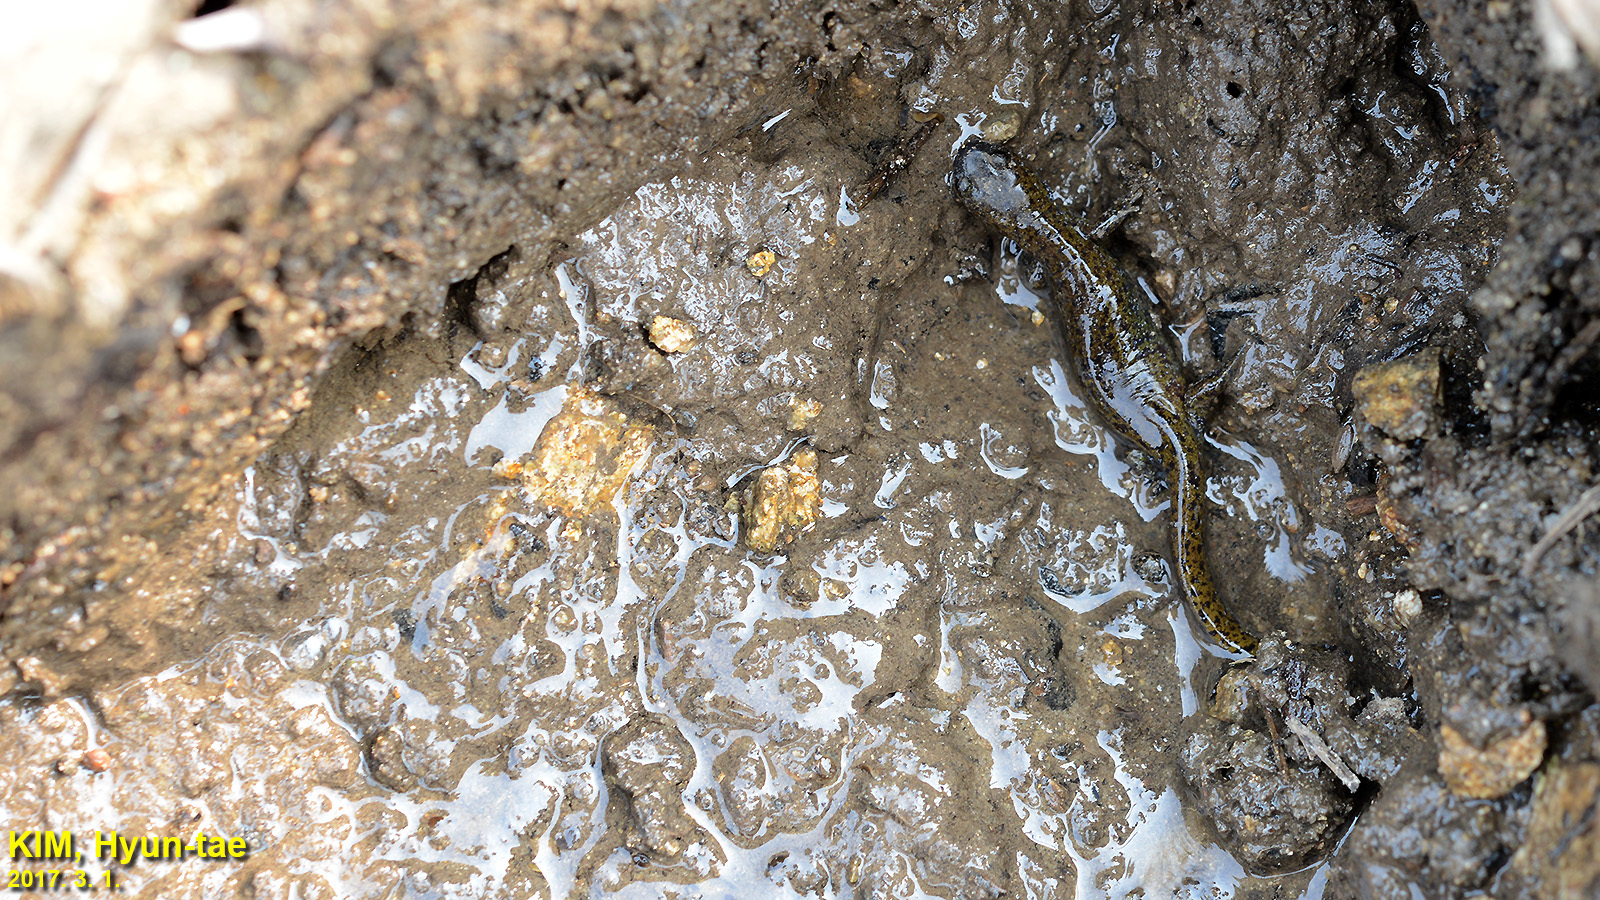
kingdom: Animalia
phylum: Chordata
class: Amphibia
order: Caudata
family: Hynobiidae
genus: Hynobius
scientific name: Hynobius leechii
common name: Gensan salamander
